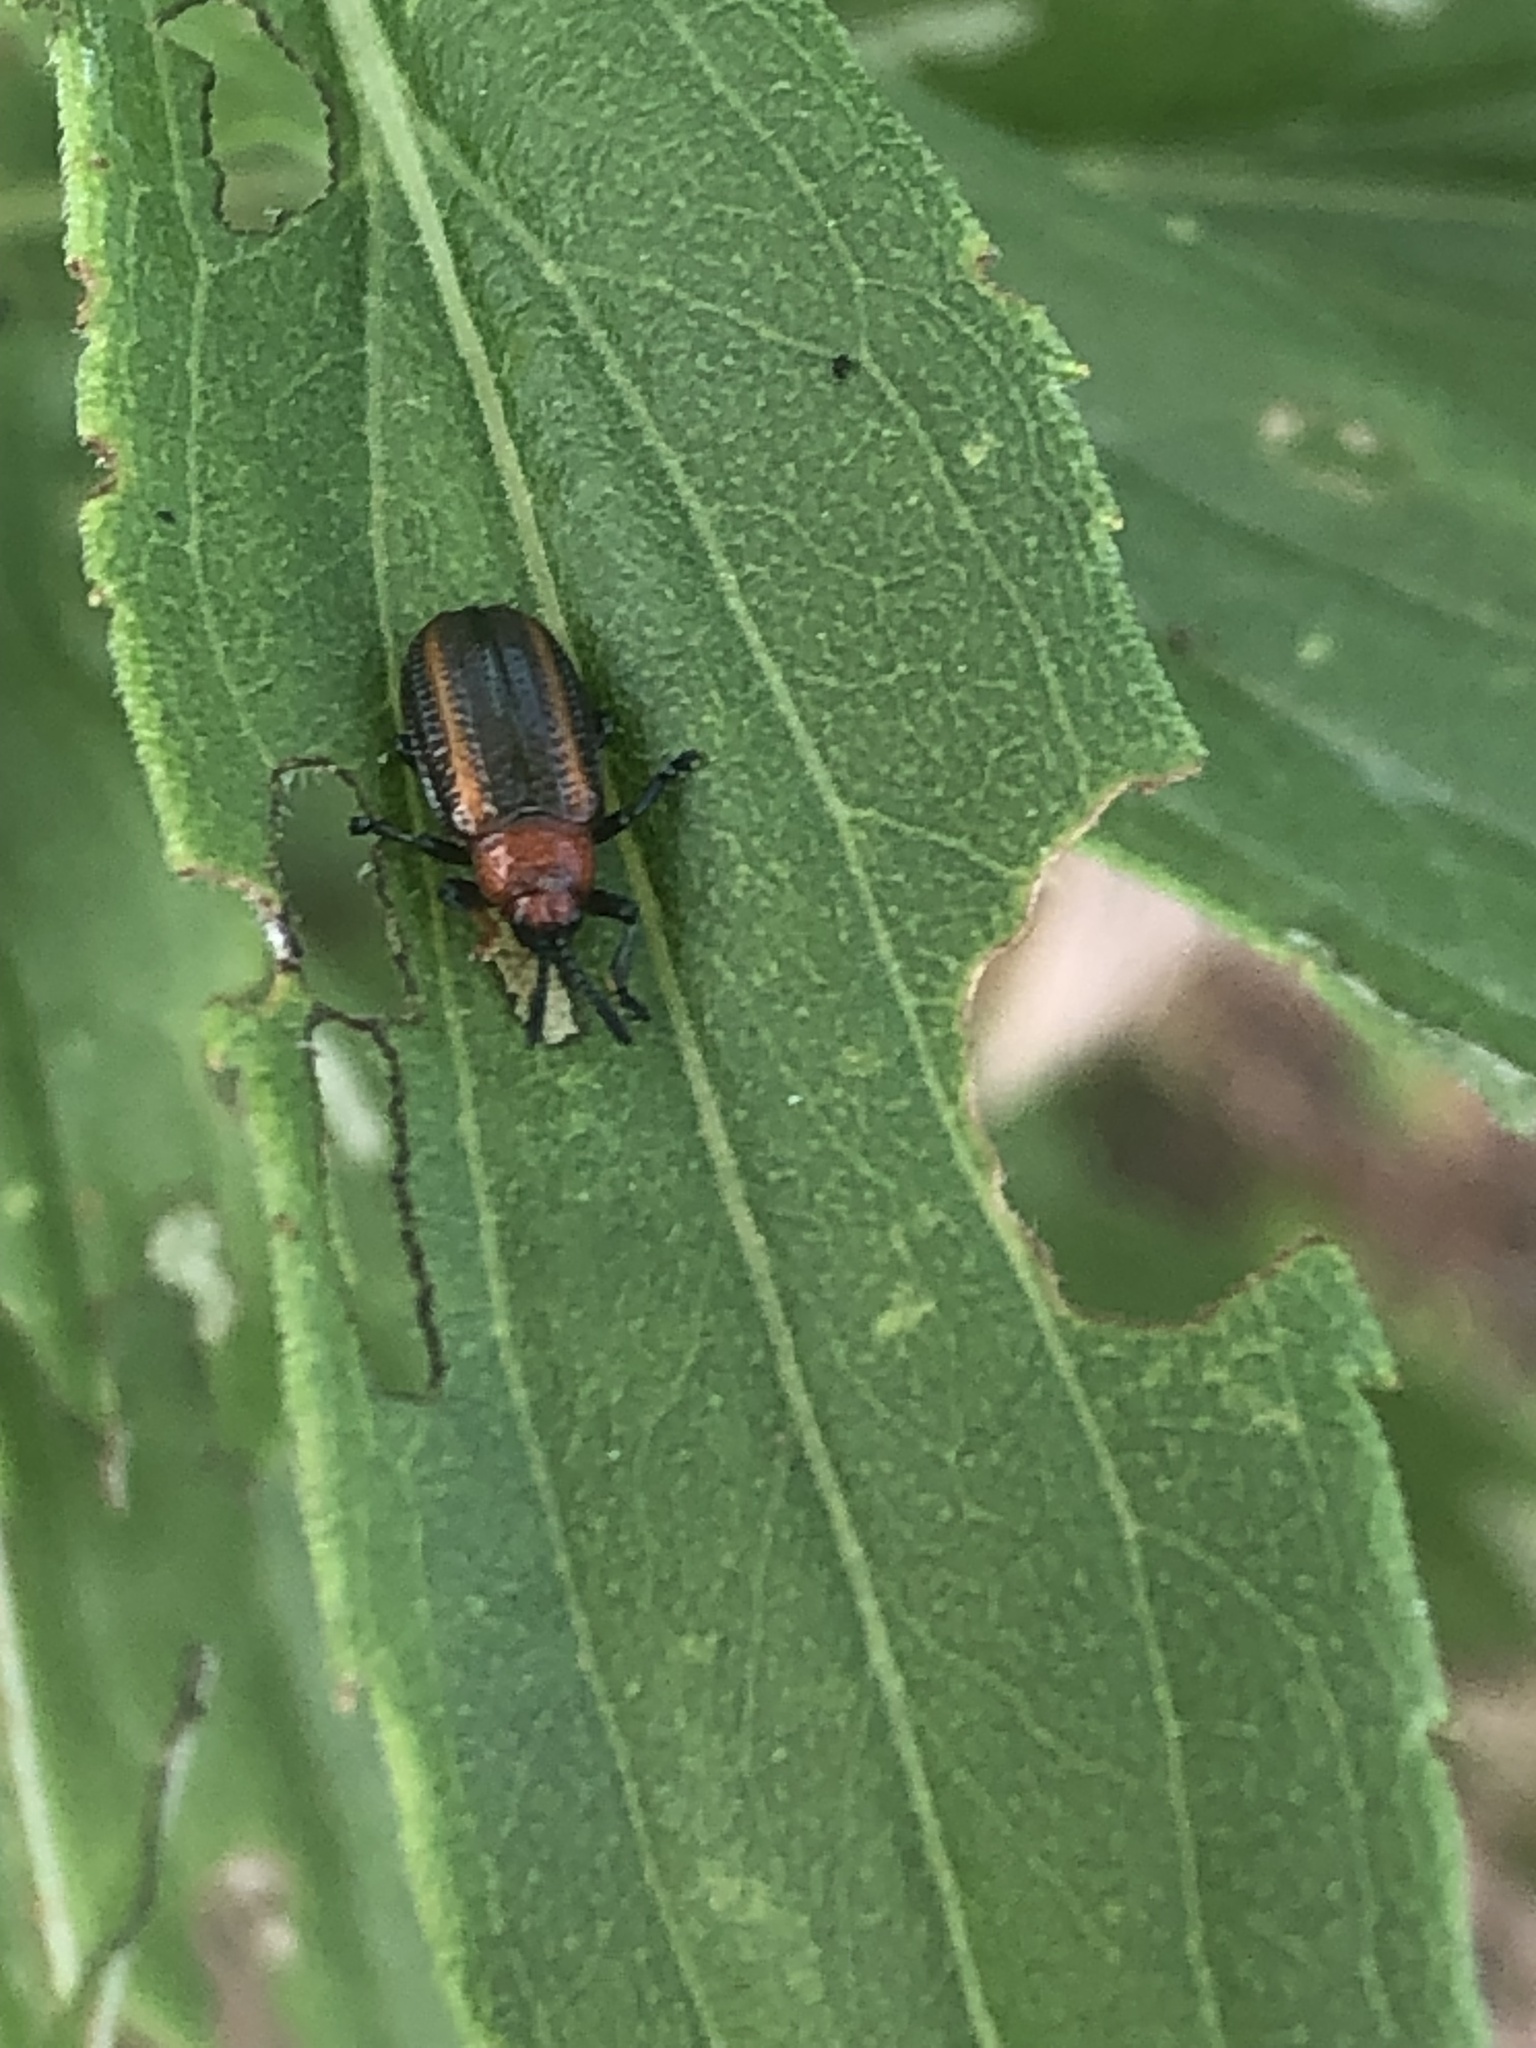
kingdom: Animalia
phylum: Arthropoda
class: Insecta
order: Coleoptera
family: Chrysomelidae
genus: Microrhopala
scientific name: Microrhopala vittata
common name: Goldenrod leaf miner beetle
